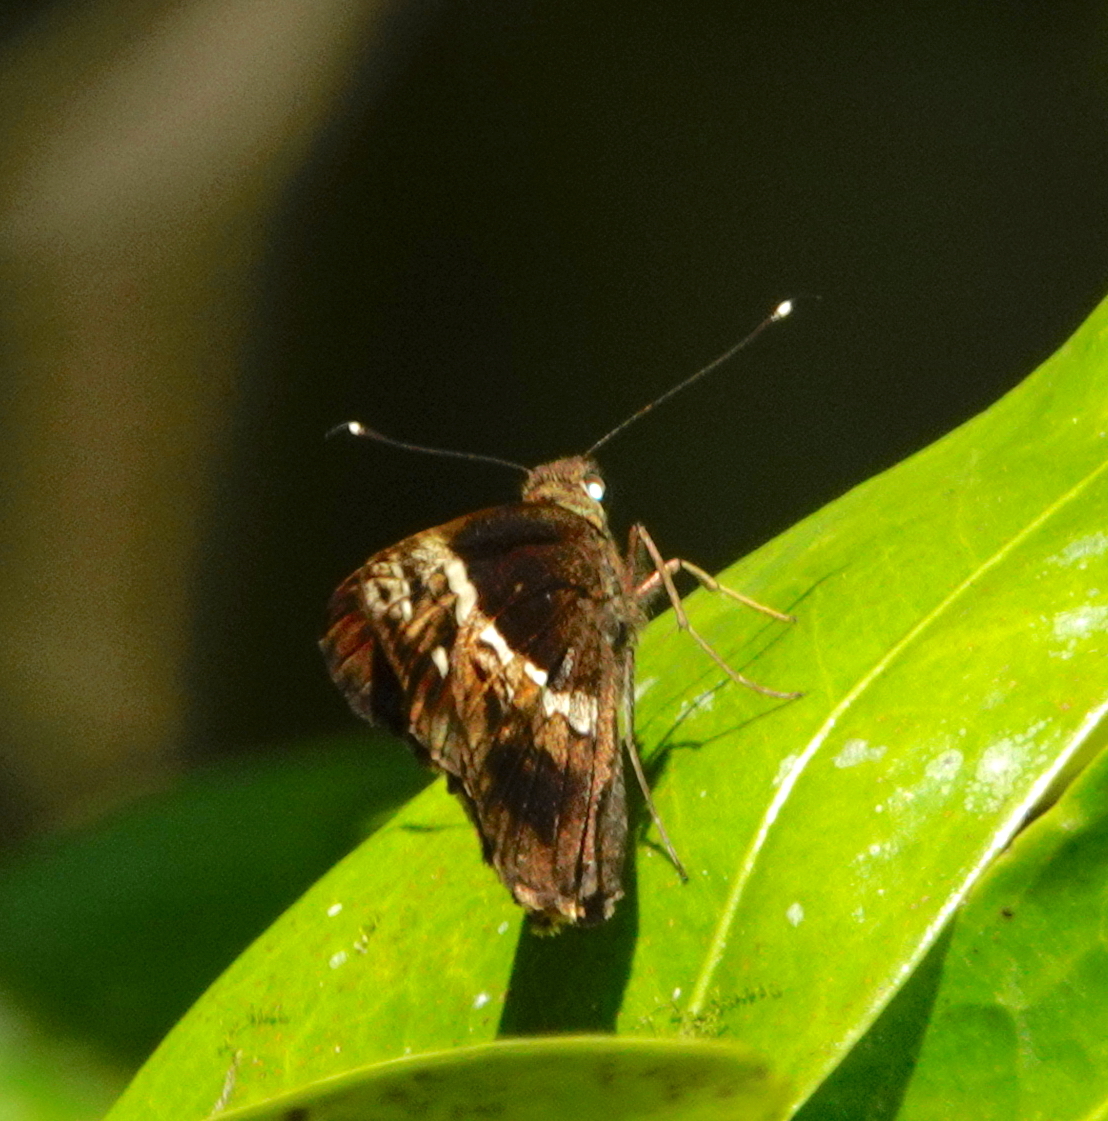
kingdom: Animalia
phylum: Arthropoda
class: Insecta
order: Lepidoptera
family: Hesperiidae
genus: Hyarotis
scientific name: Hyarotis adrastus
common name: Tree flitter
